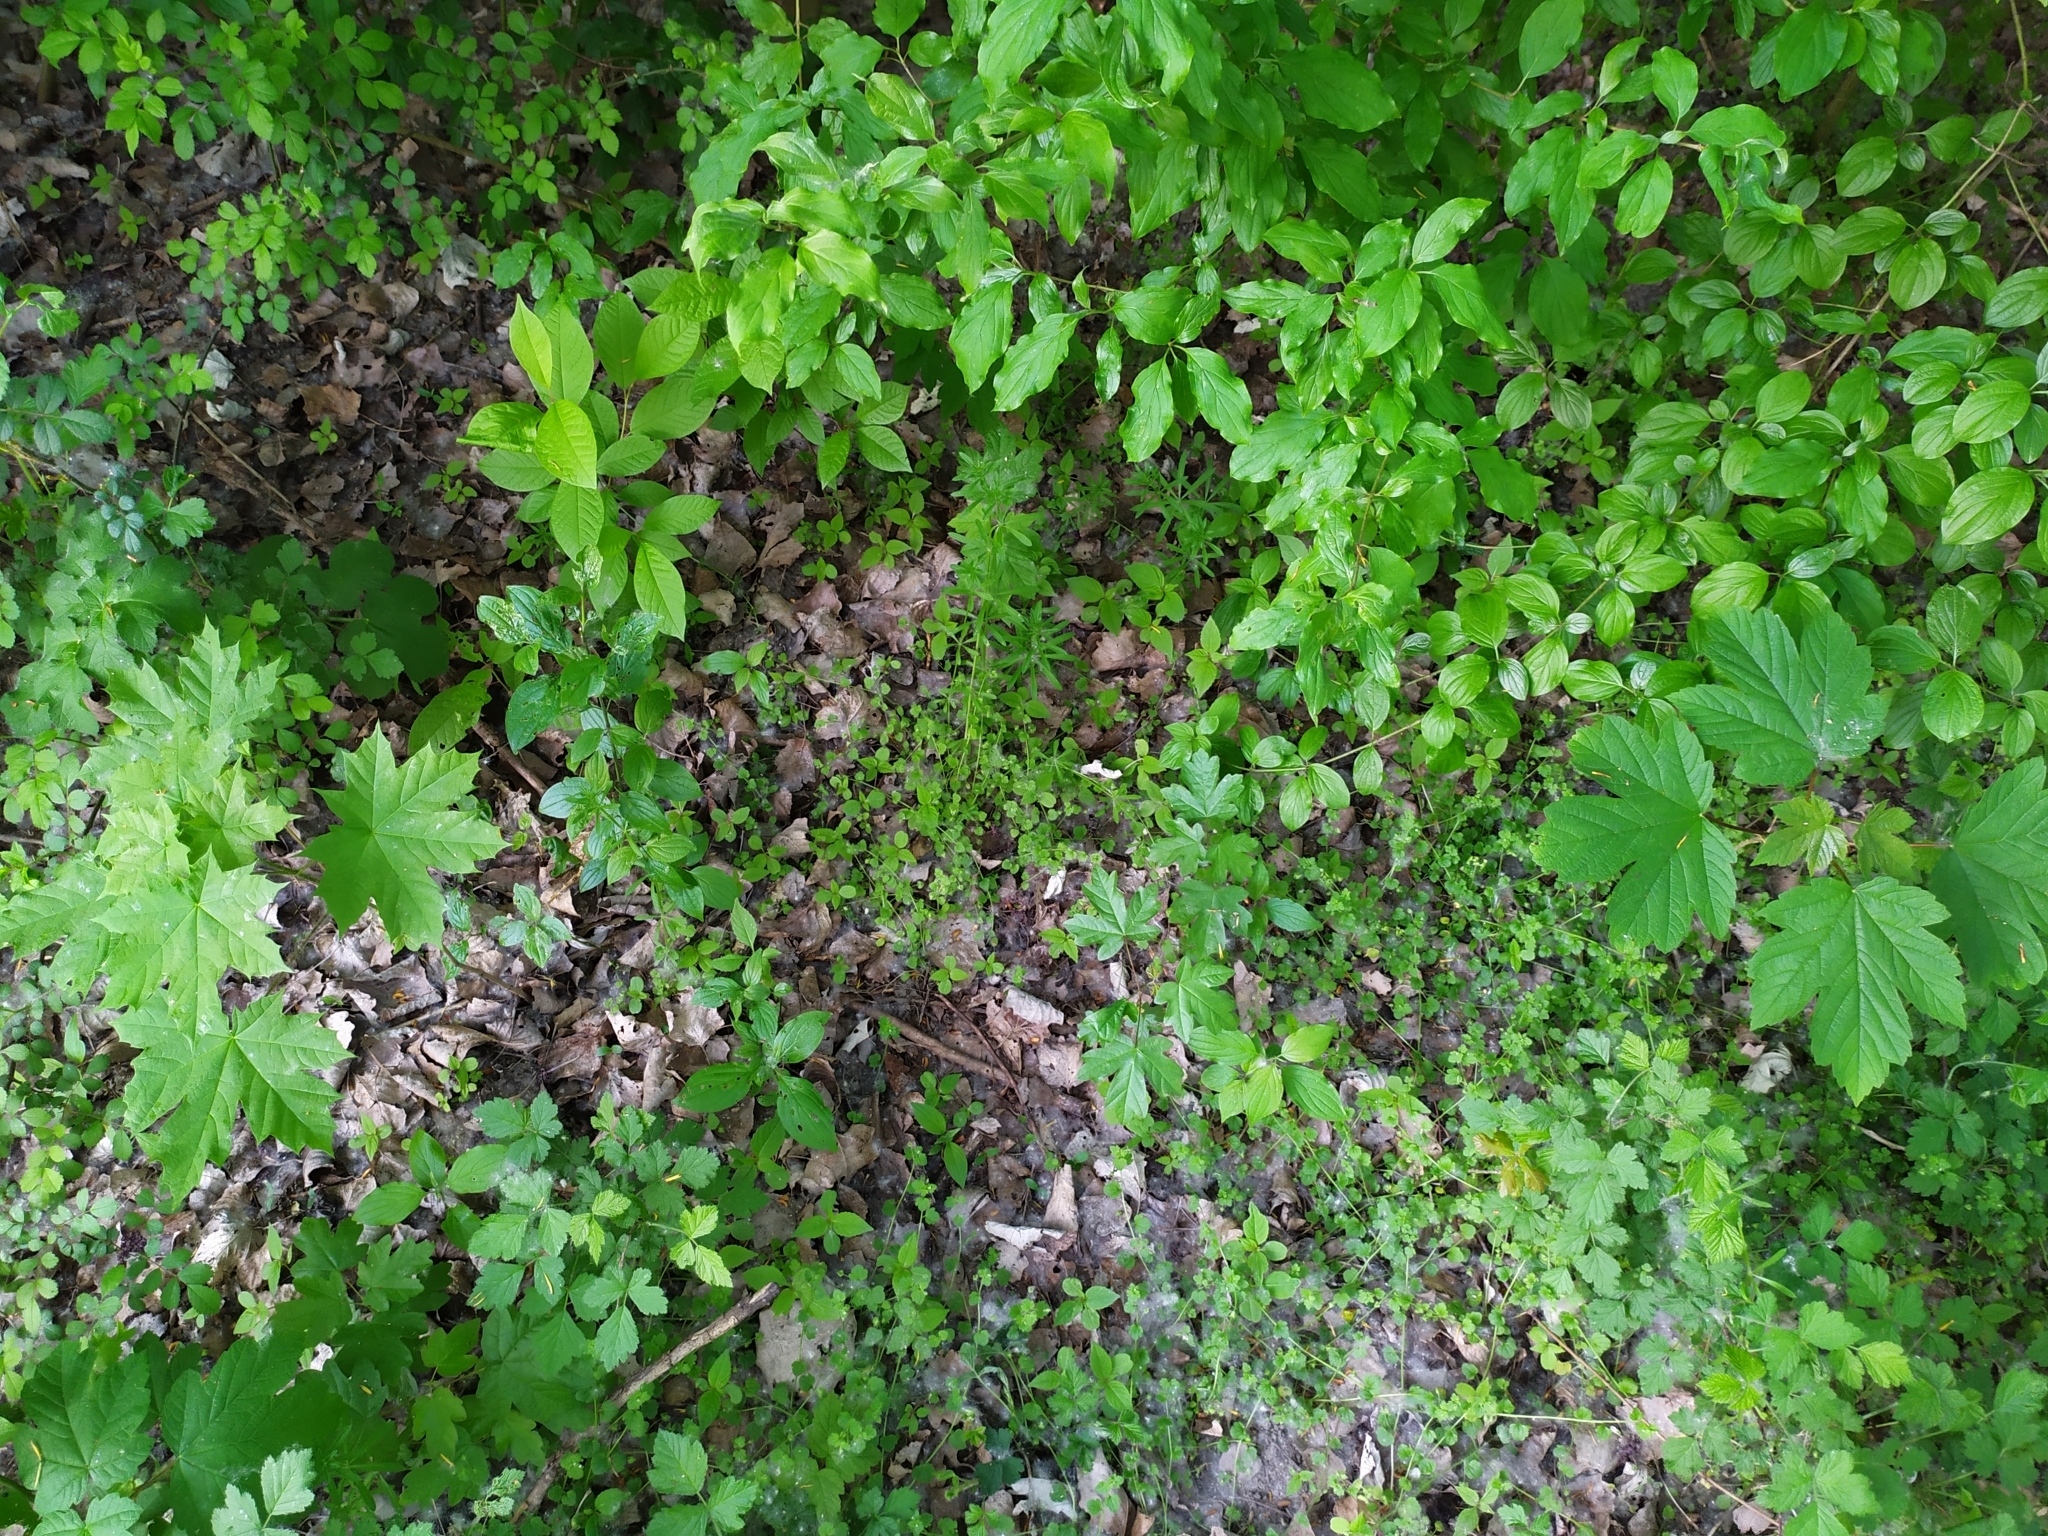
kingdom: Plantae
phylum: Tracheophyta
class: Magnoliopsida
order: Sapindales
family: Sapindaceae
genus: Acer
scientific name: Acer campestre
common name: Field maple
